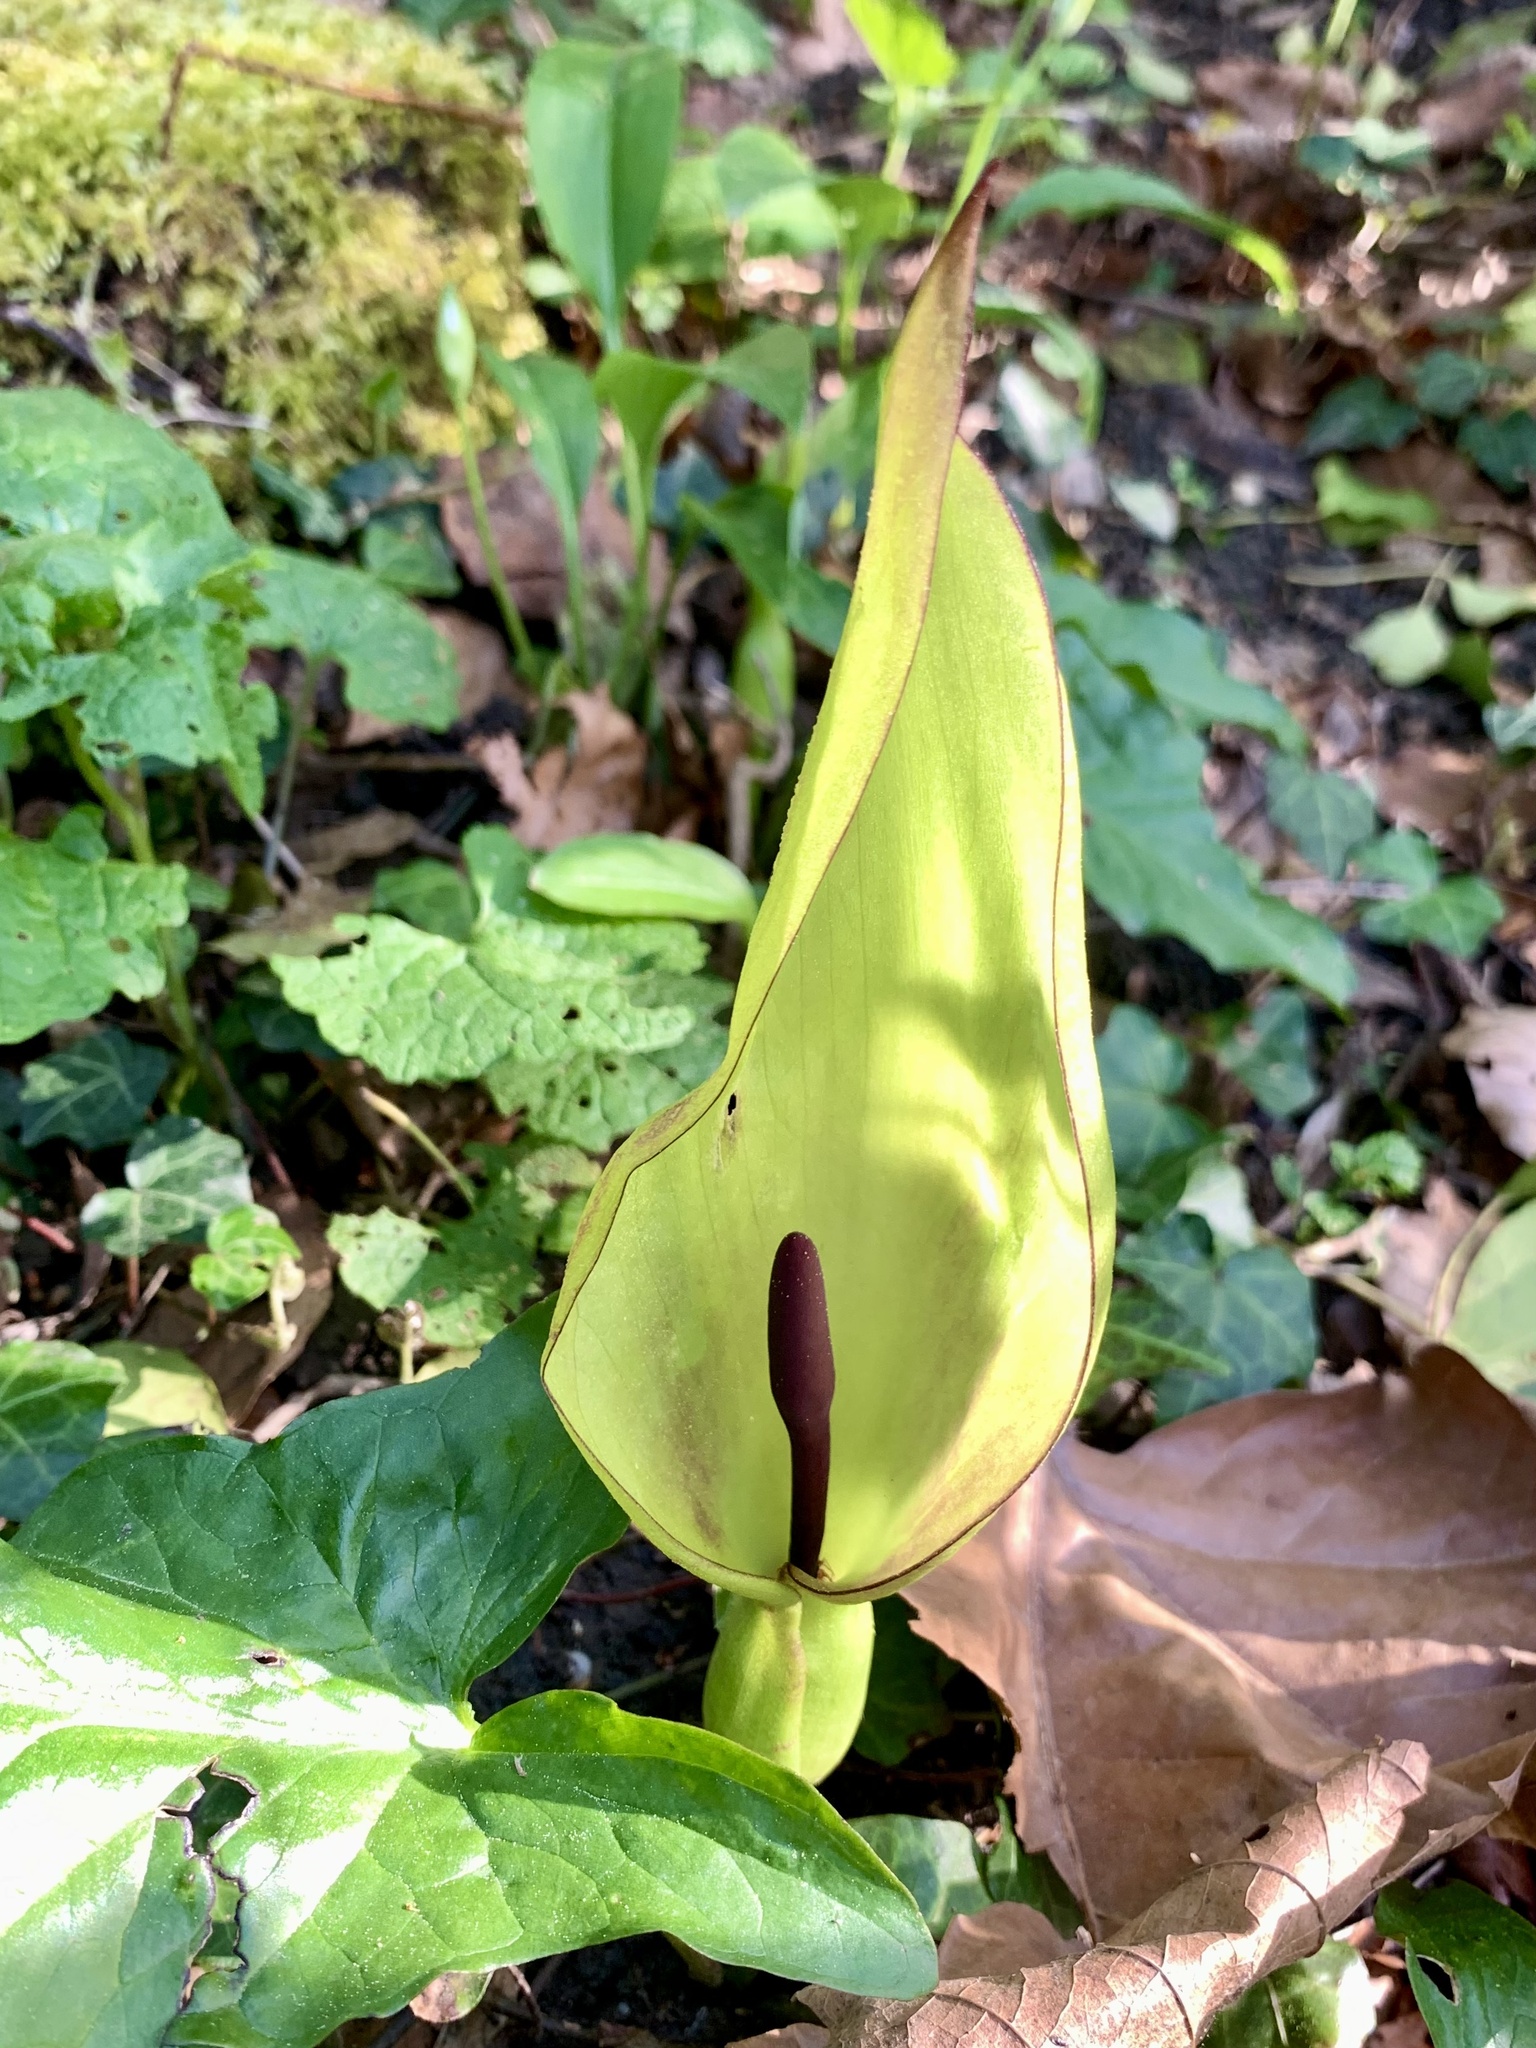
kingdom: Plantae
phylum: Tracheophyta
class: Liliopsida
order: Alismatales
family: Araceae
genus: Arum
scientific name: Arum maculatum
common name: Lords-and-ladies
